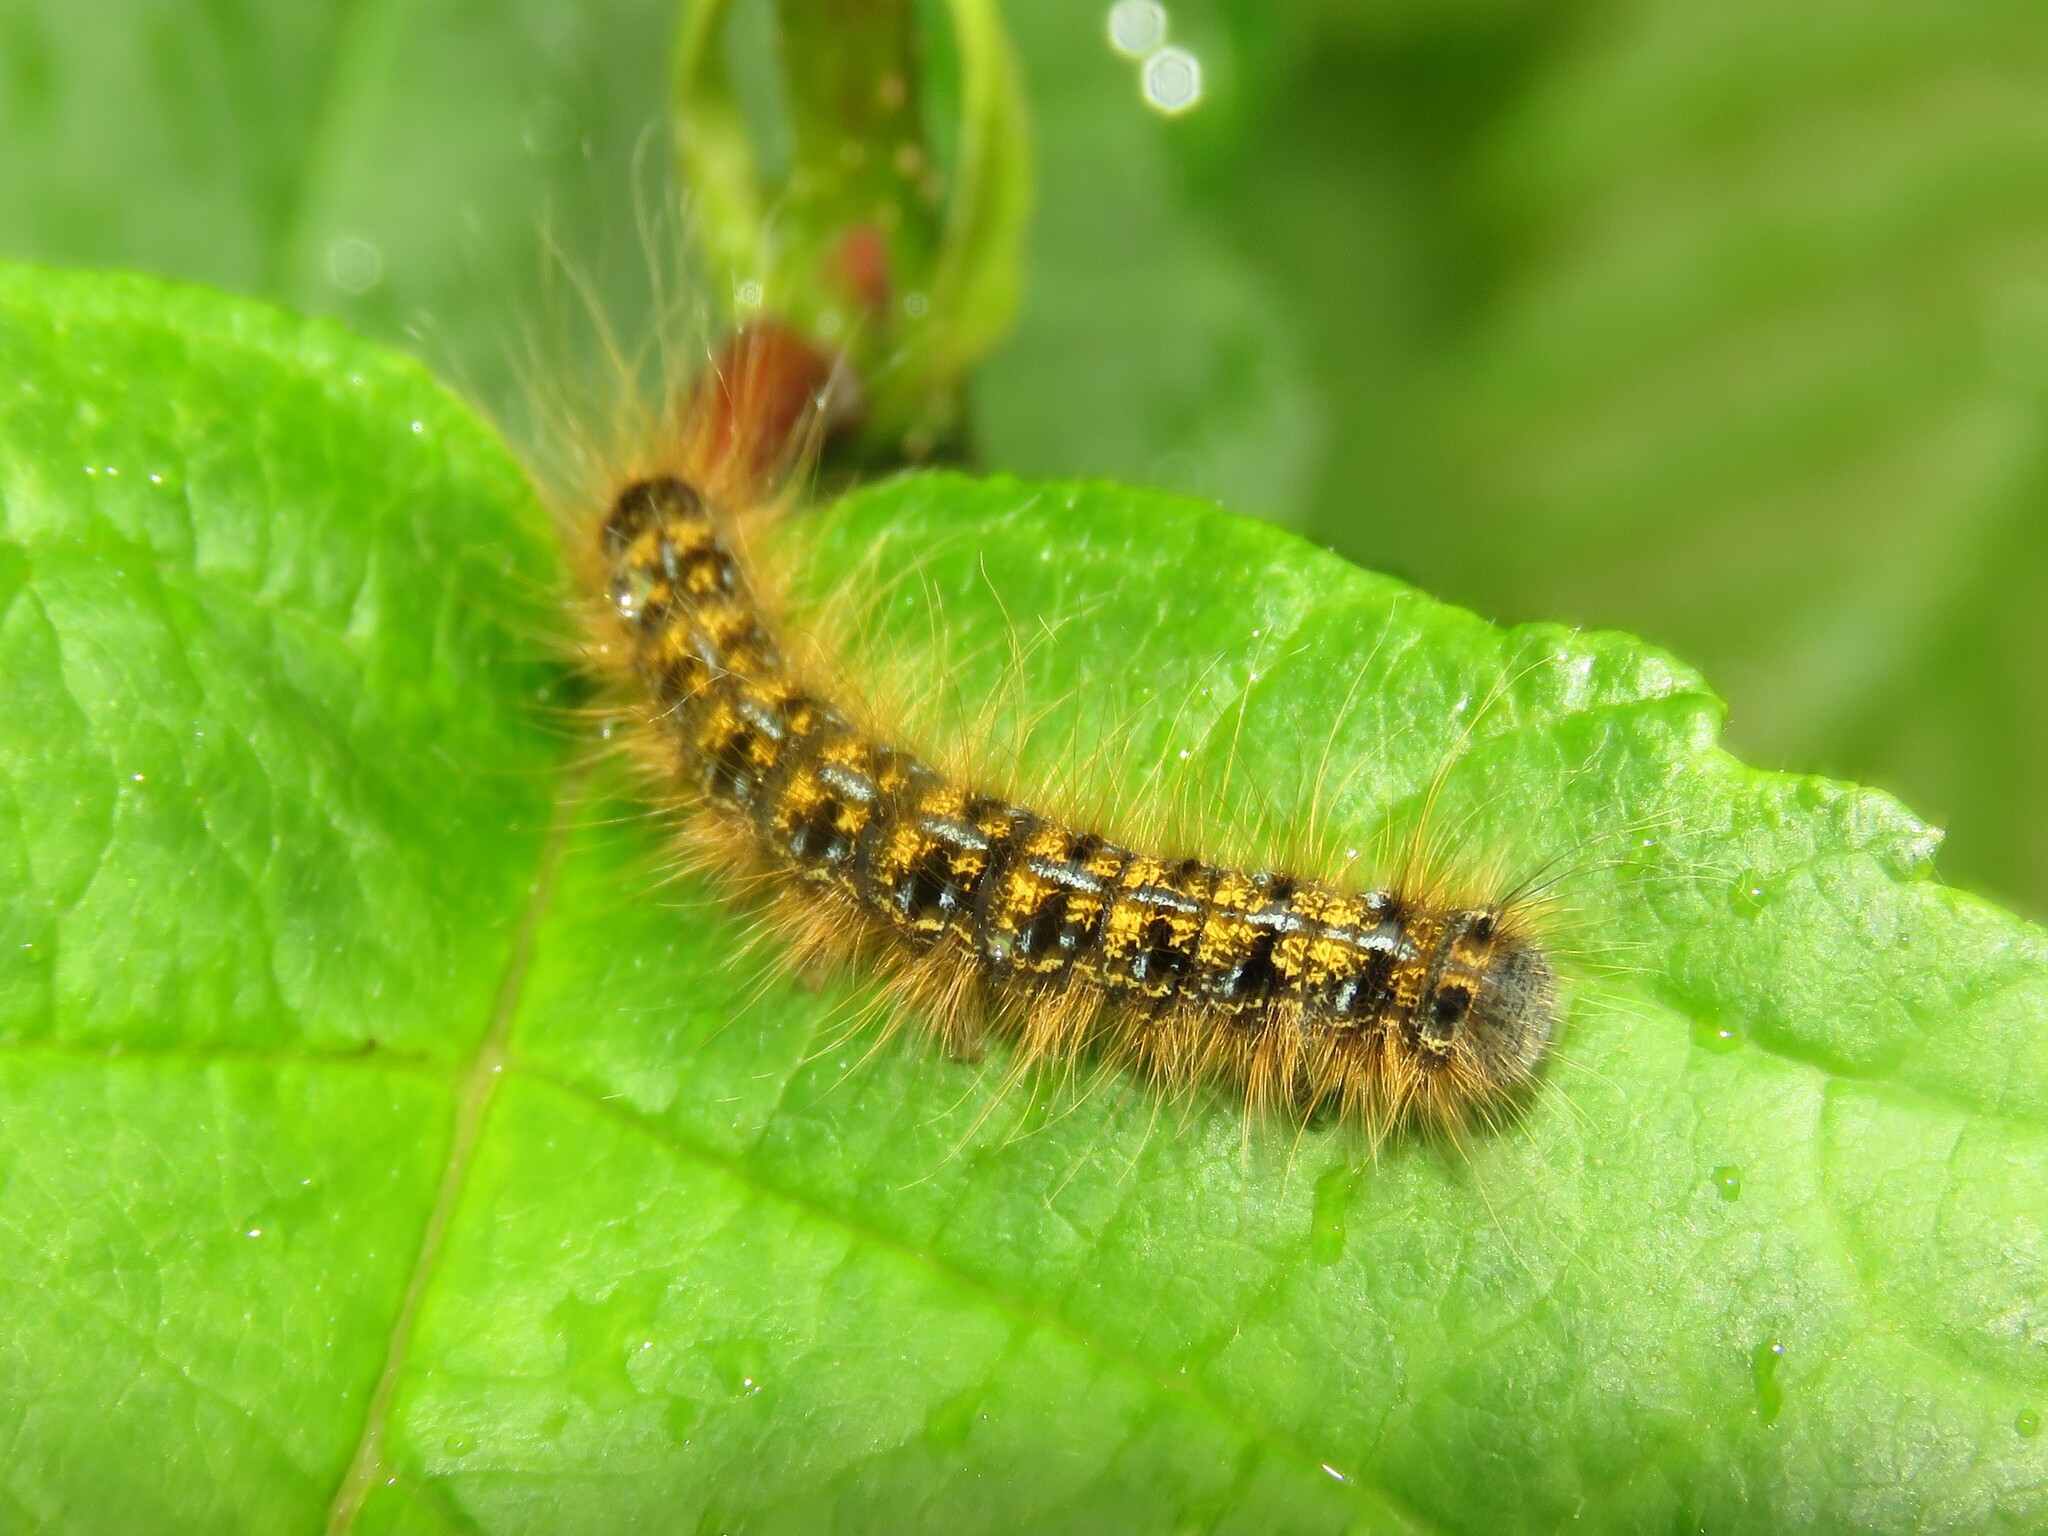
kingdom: Animalia
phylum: Arthropoda
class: Insecta
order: Lepidoptera
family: Lasiocampidae
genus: Malacosoma
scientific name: Malacosoma californica
